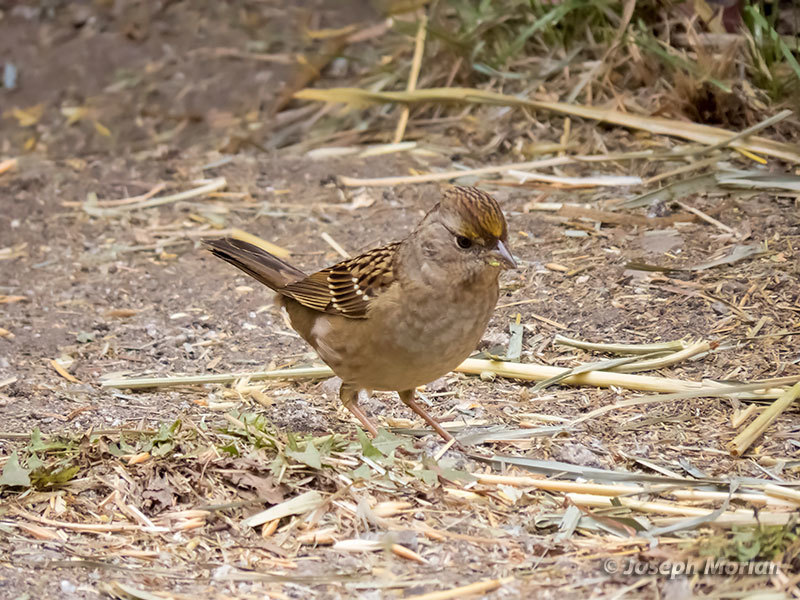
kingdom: Animalia
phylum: Chordata
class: Aves
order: Passeriformes
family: Passerellidae
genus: Zonotrichia
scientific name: Zonotrichia atricapilla
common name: Golden-crowned sparrow
